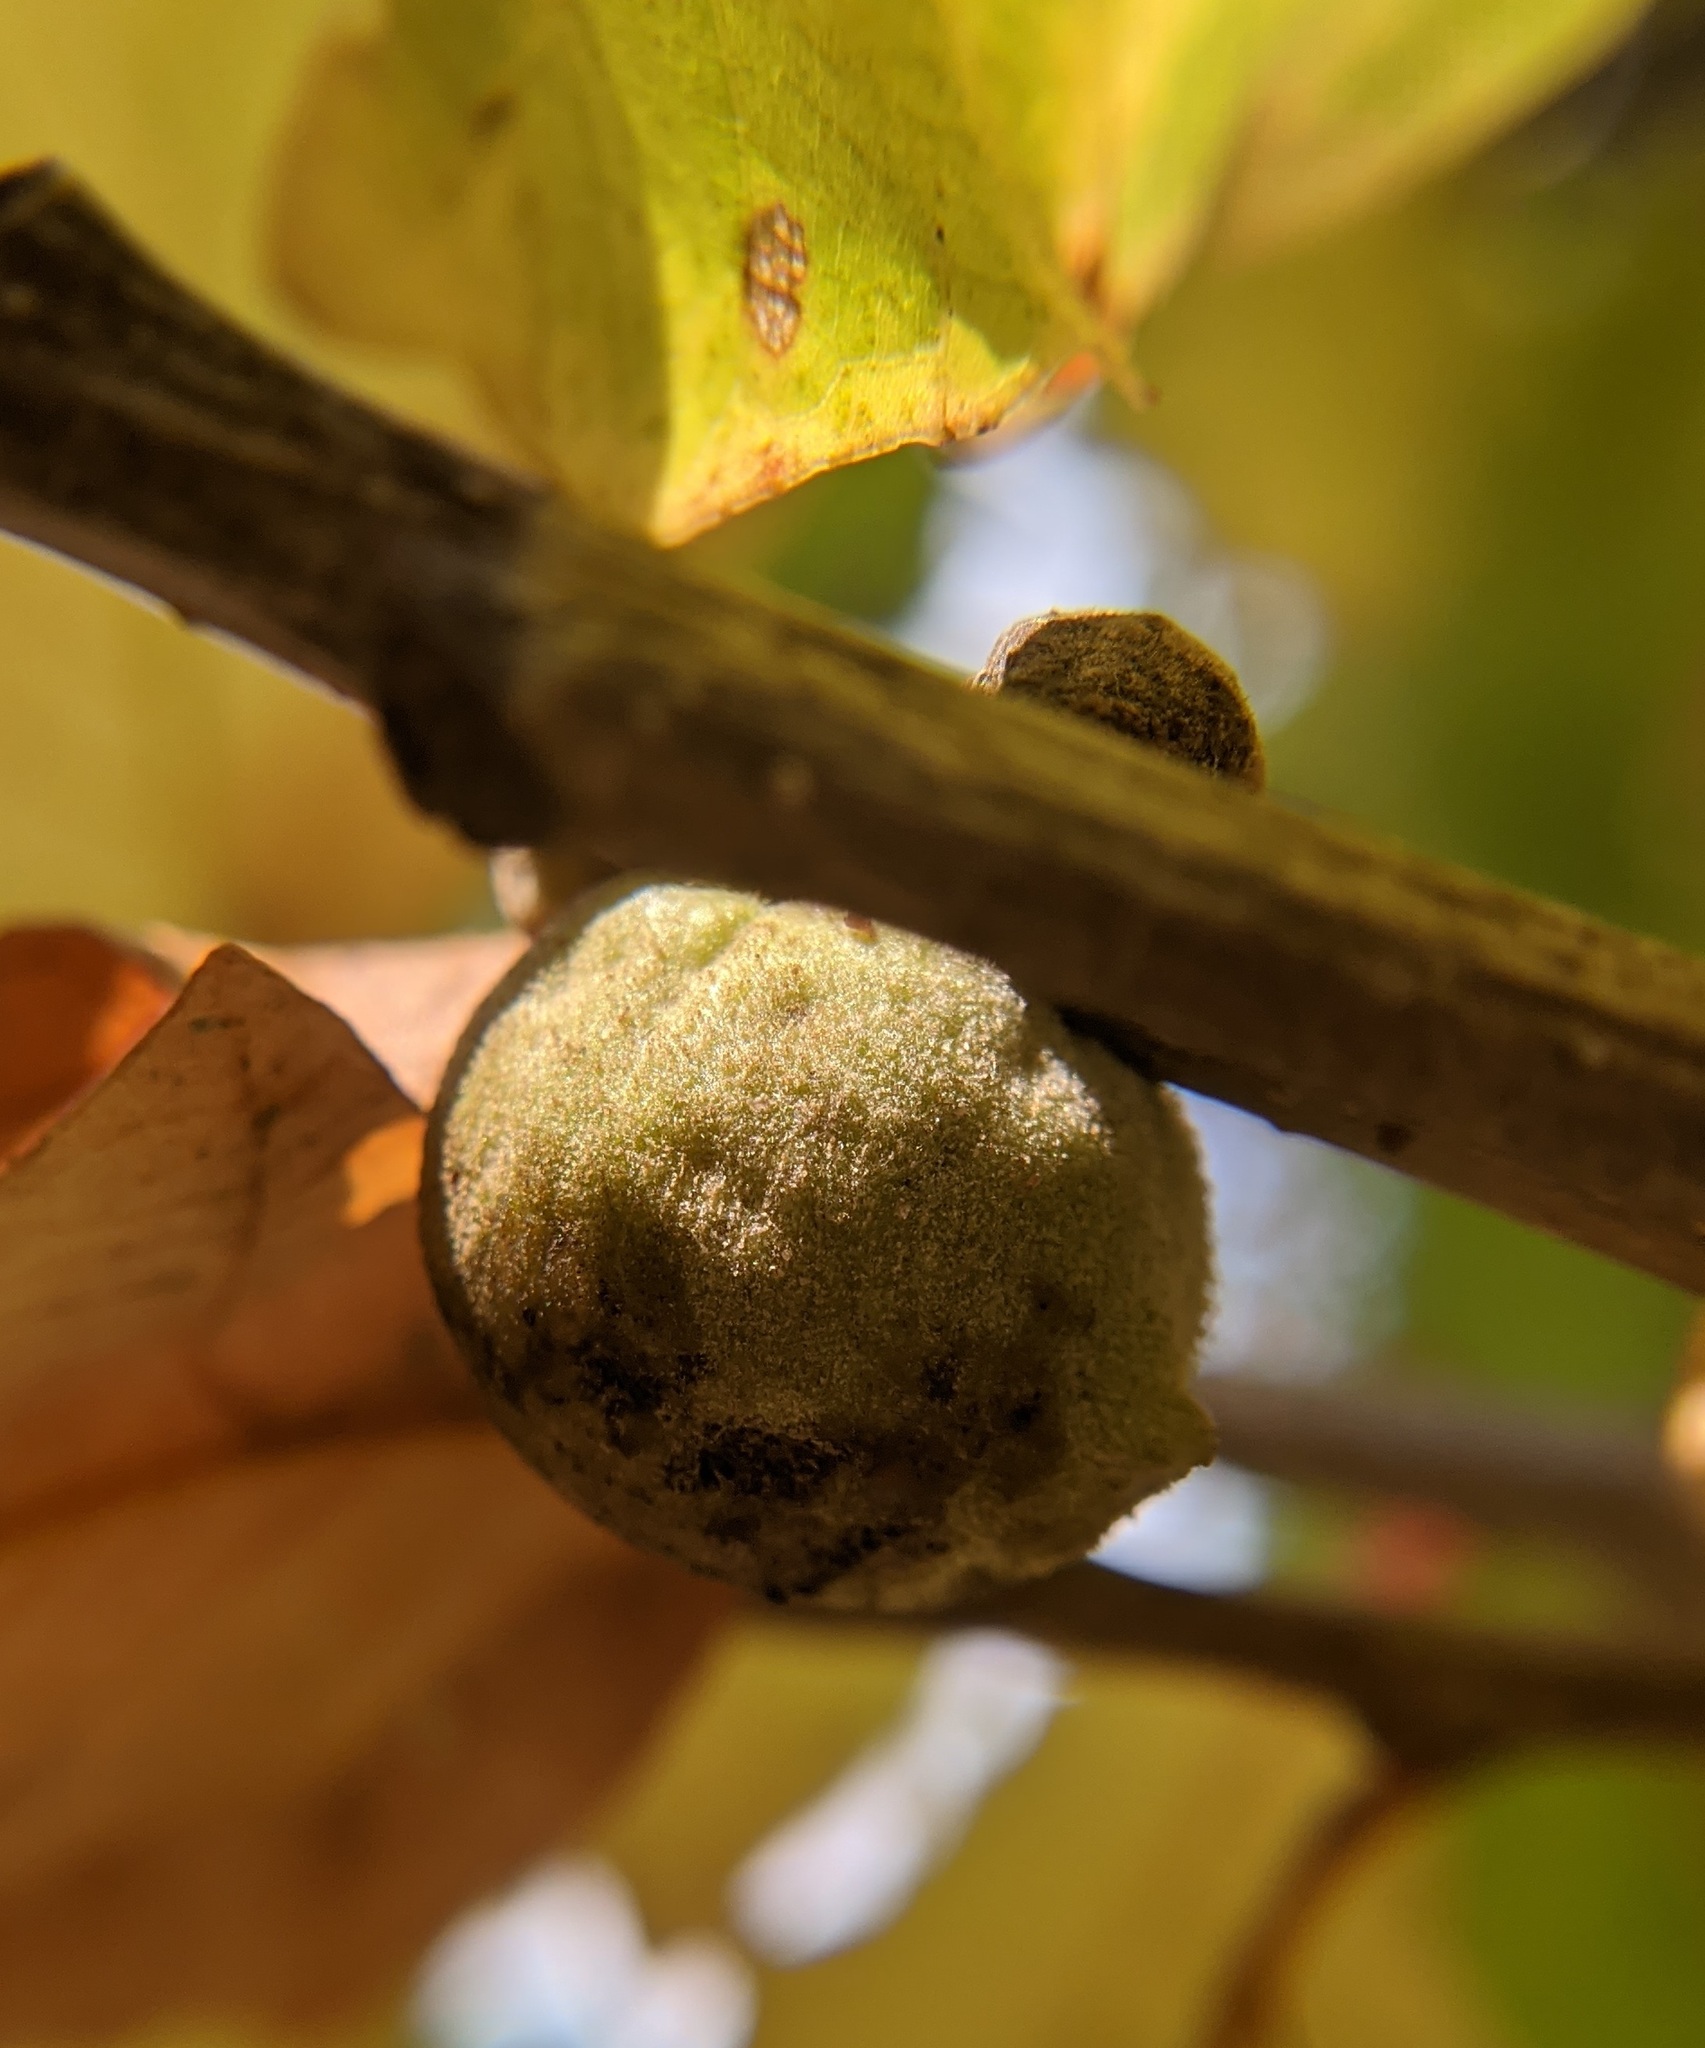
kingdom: Animalia
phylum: Arthropoda
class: Insecta
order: Hymenoptera
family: Cynipidae
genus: Disholcaspis
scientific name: Disholcaspis
